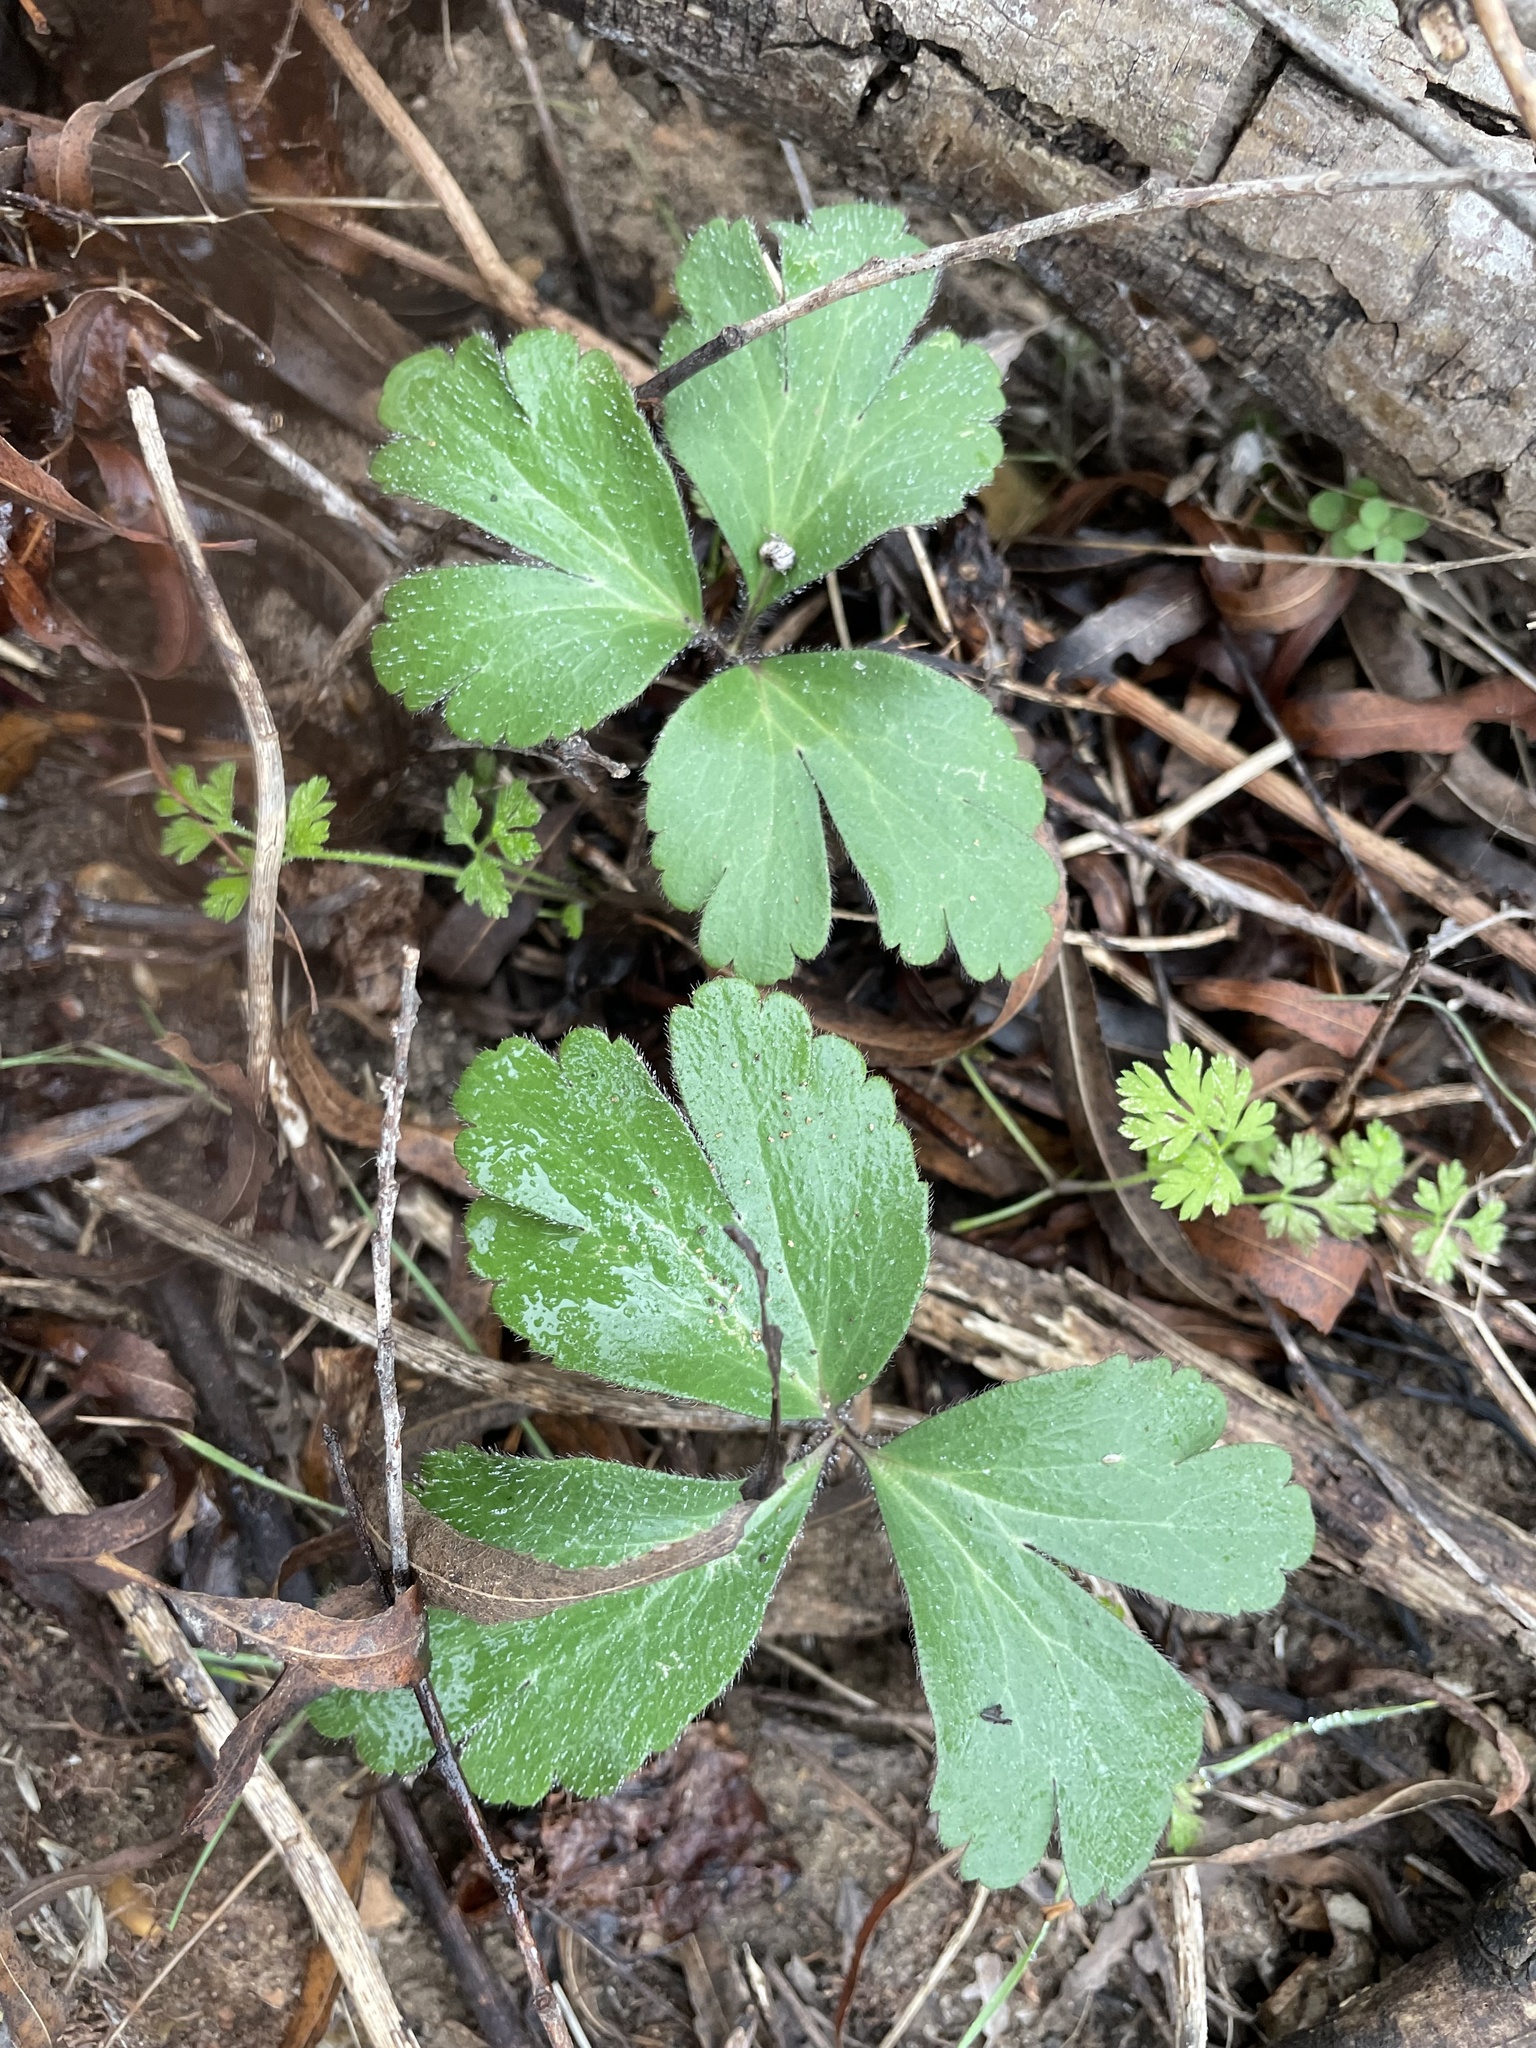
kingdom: Plantae
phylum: Tracheophyta
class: Magnoliopsida
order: Ranunculales
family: Ranunculaceae
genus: Anemone
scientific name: Anemone berlandieri
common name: Ten-petal anemone
